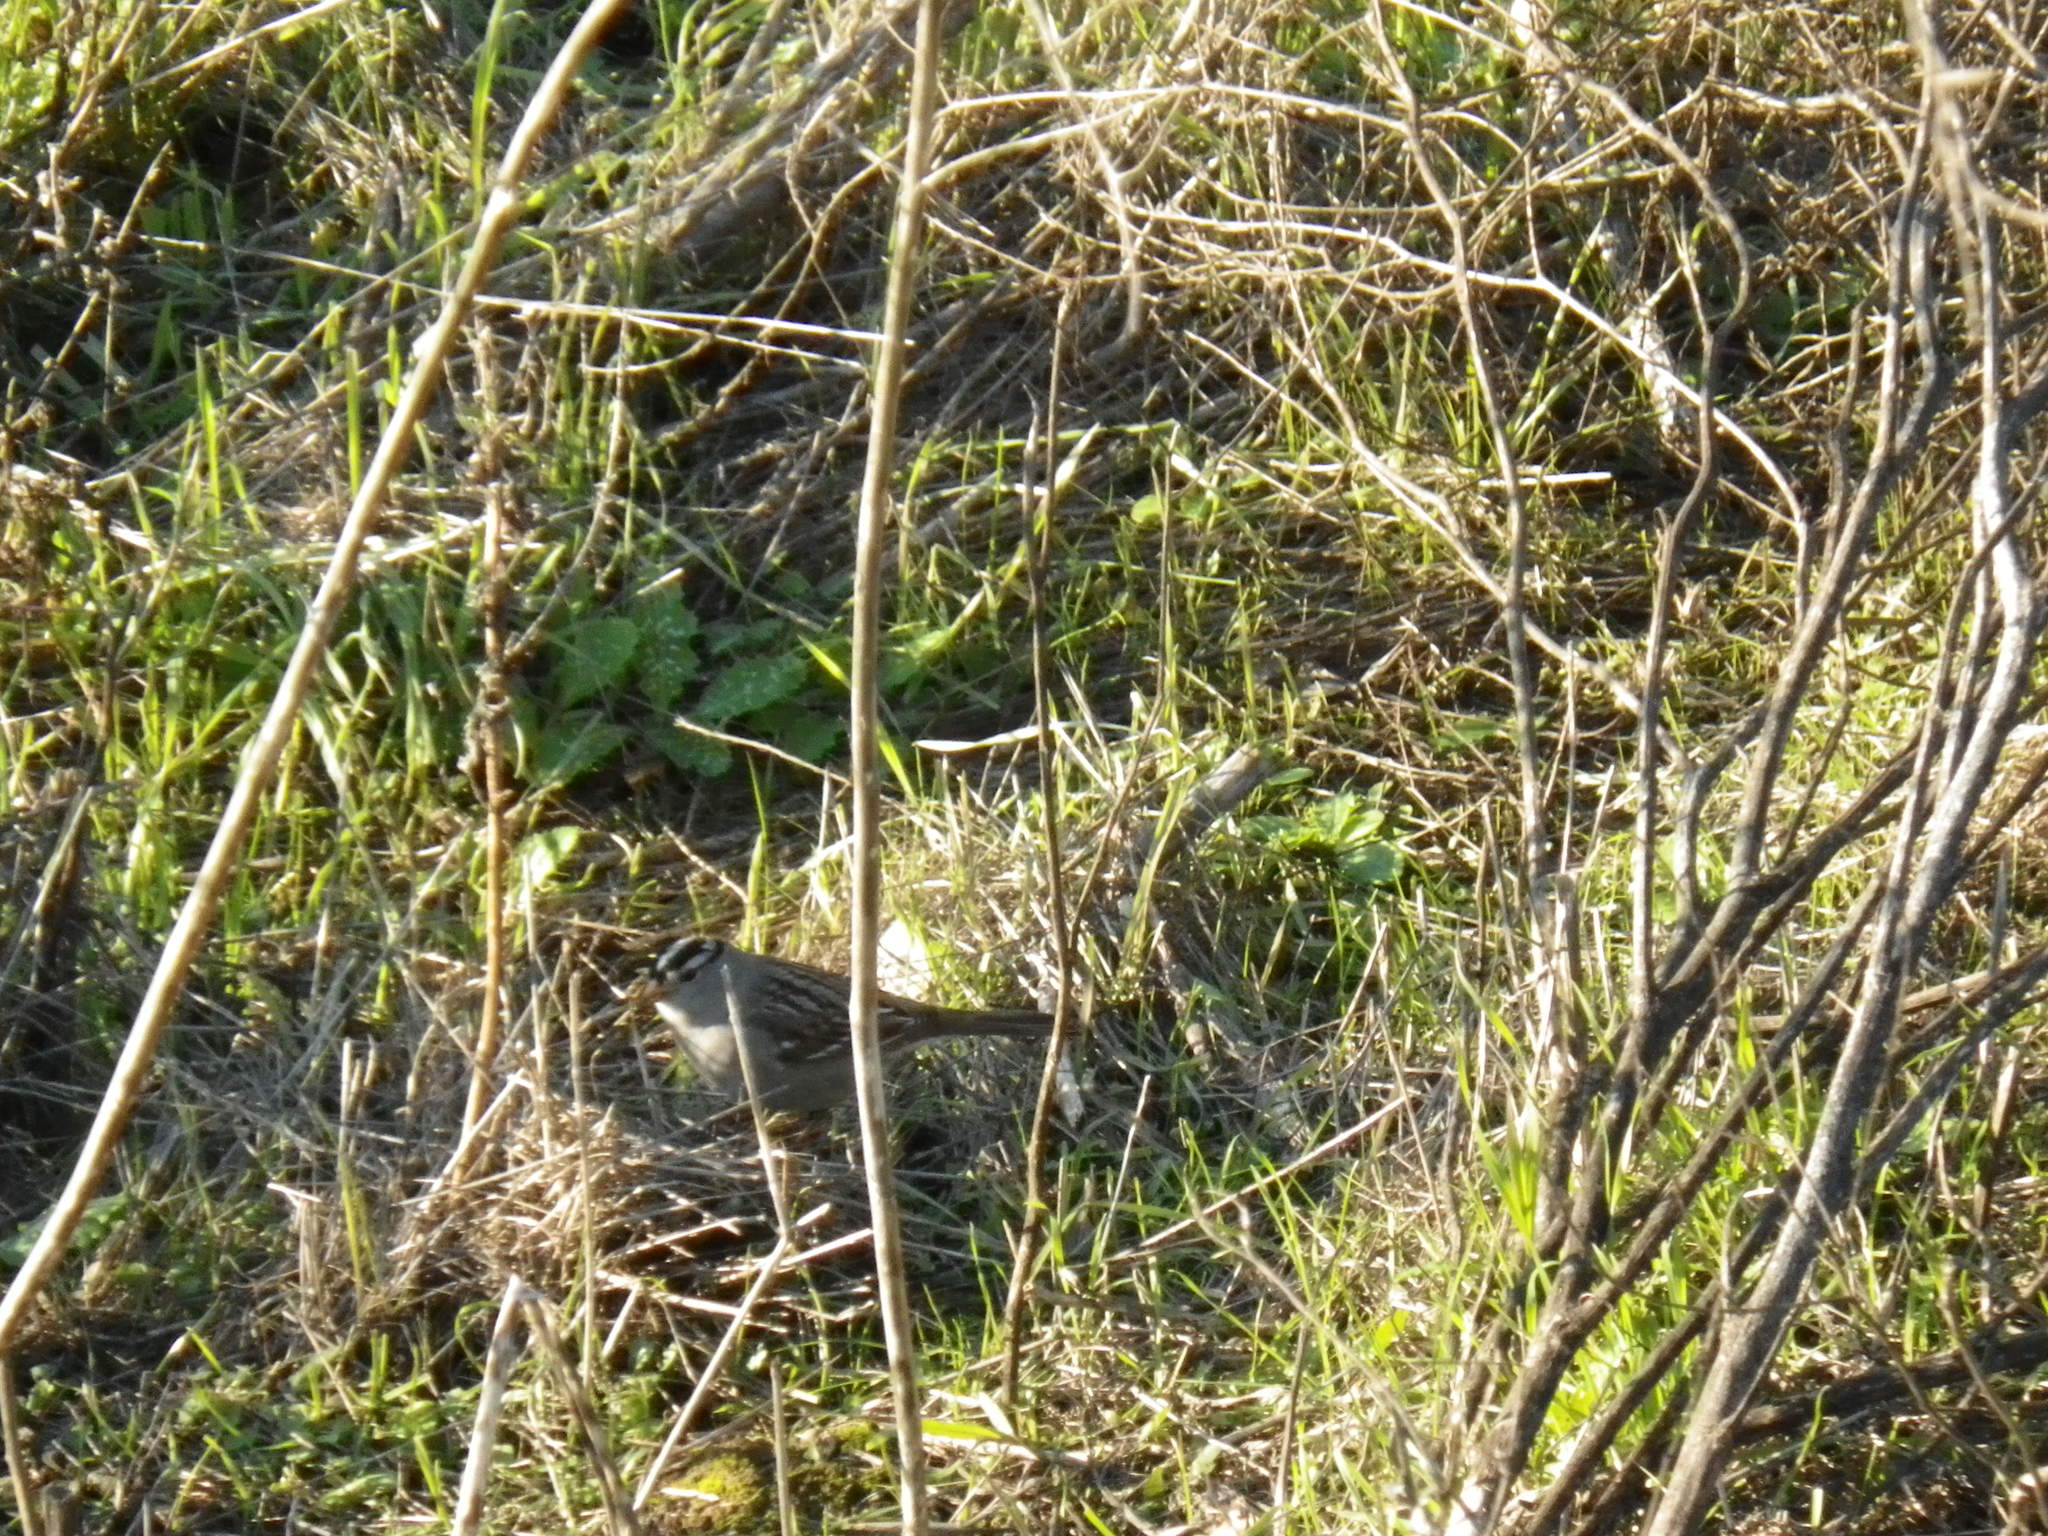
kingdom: Animalia
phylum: Chordata
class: Aves
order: Passeriformes
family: Passerellidae
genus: Zonotrichia
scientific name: Zonotrichia leucophrys
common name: White-crowned sparrow
